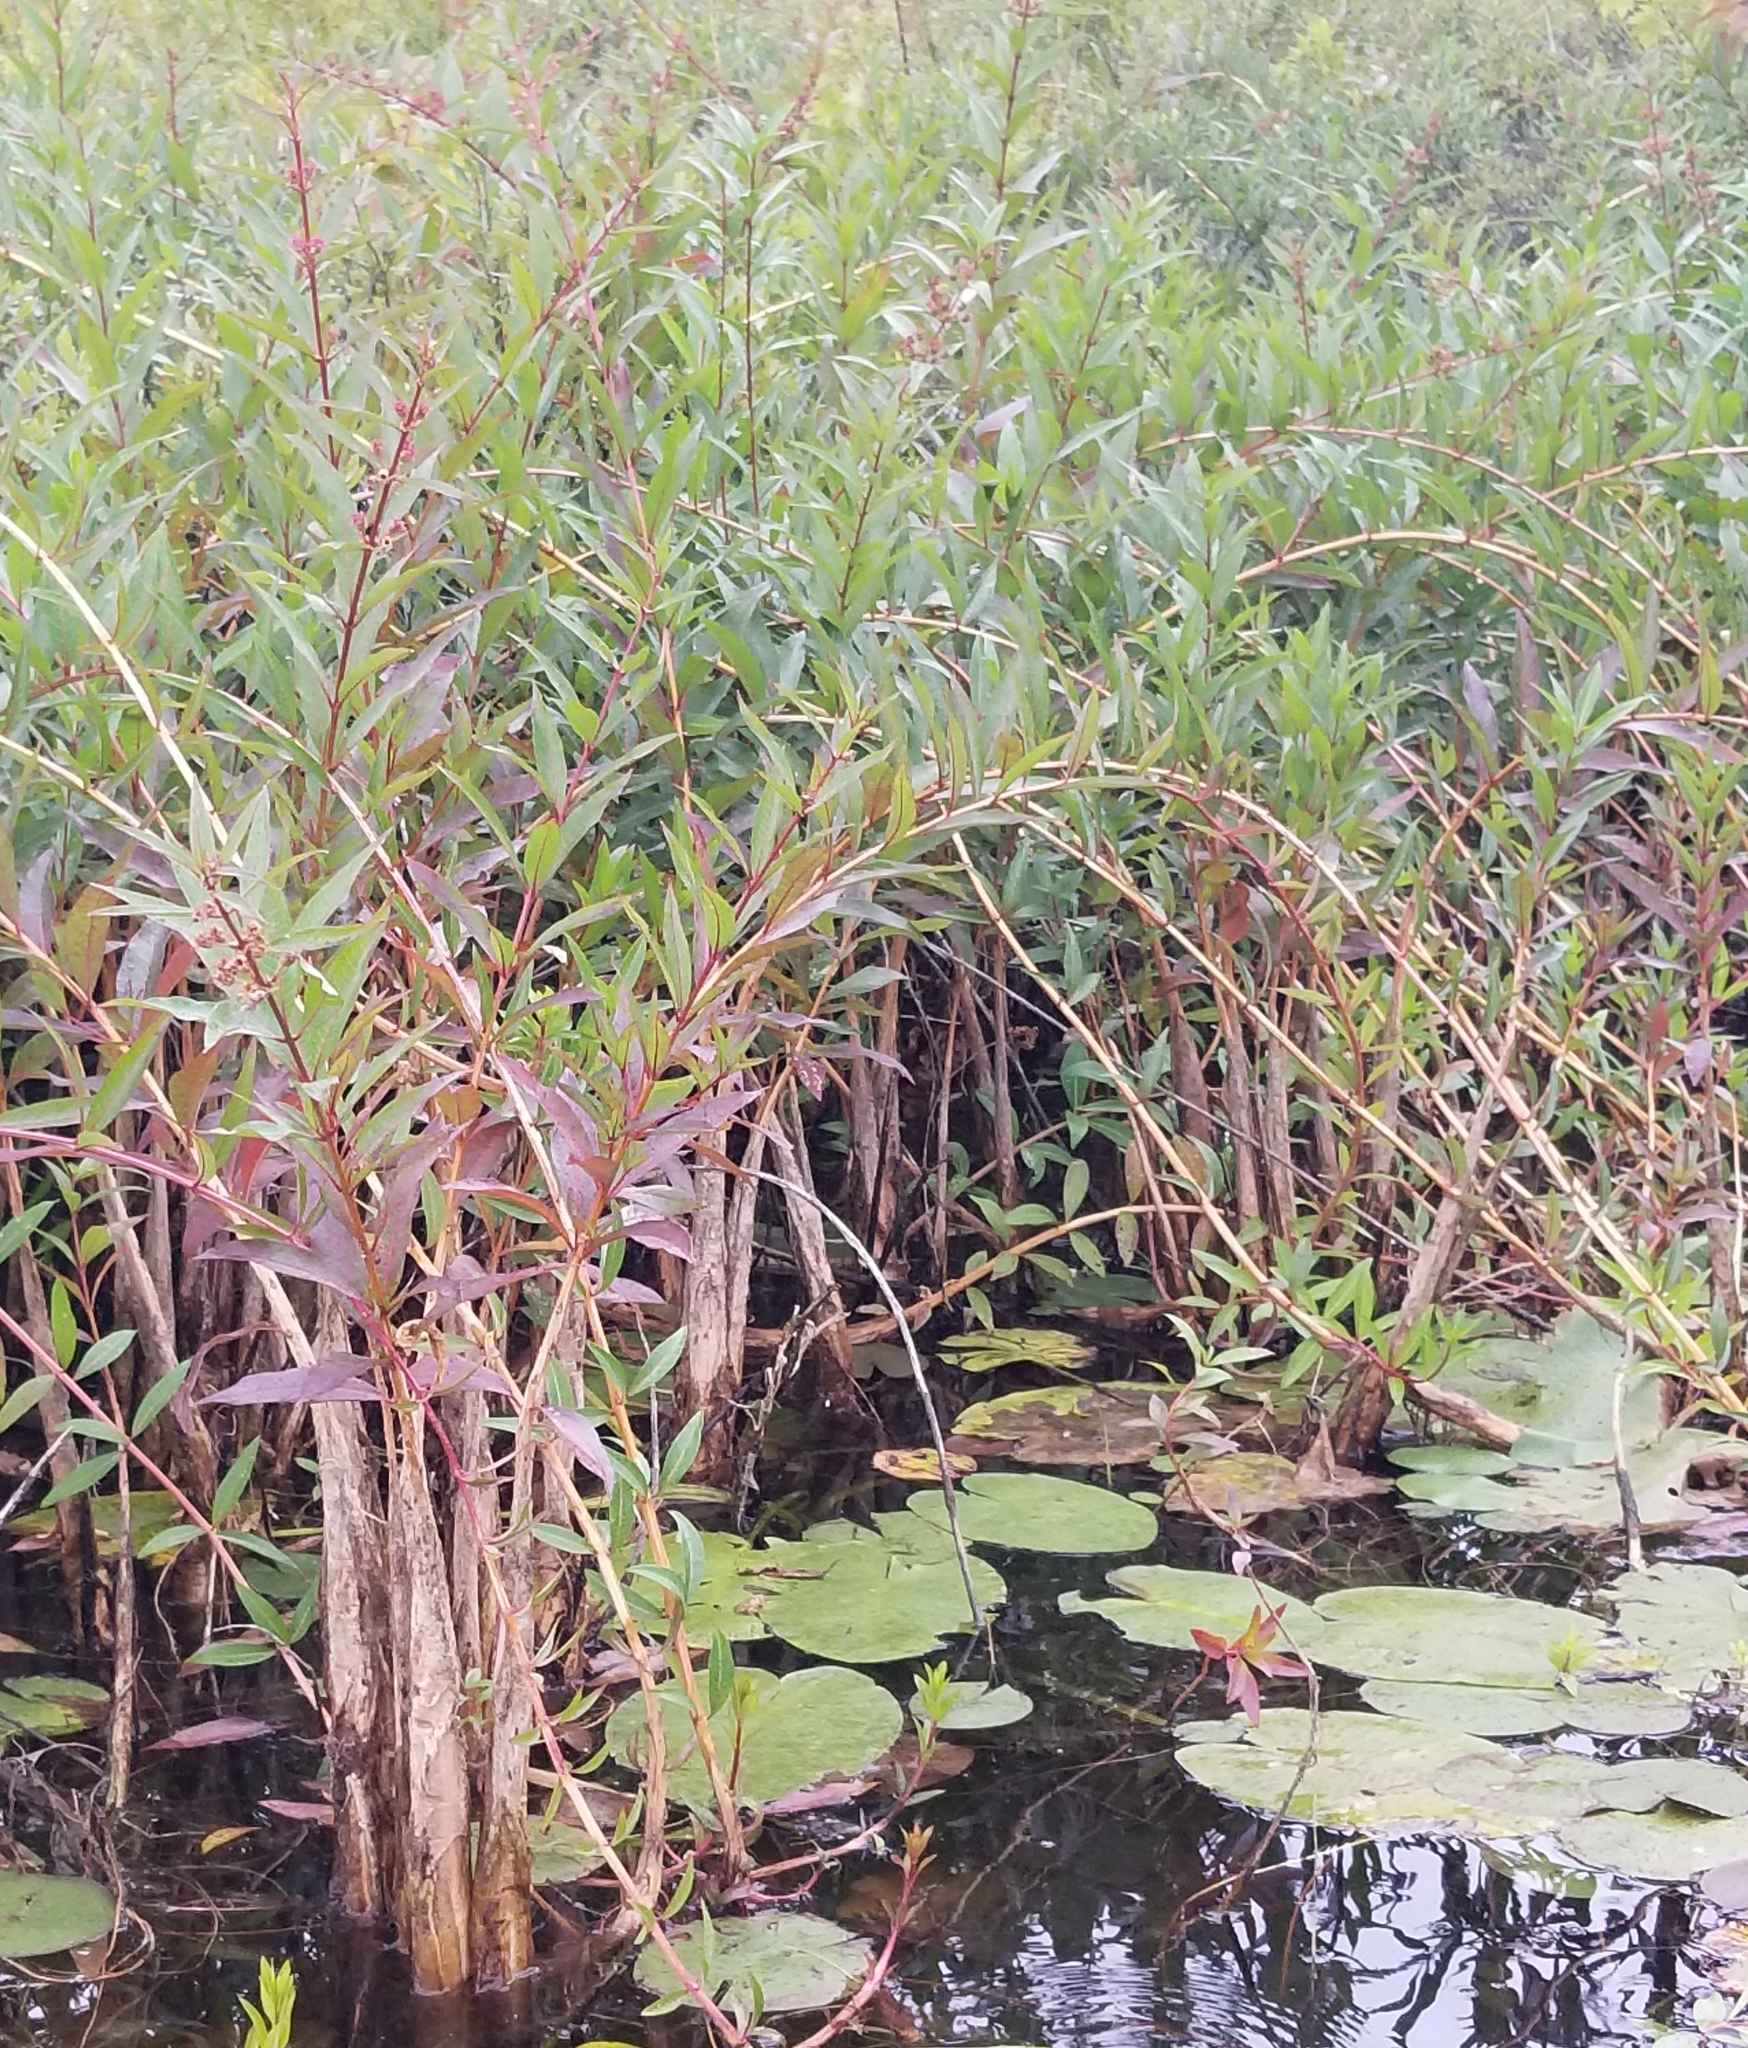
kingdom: Plantae
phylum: Tracheophyta
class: Magnoliopsida
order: Myrtales
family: Lythraceae
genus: Decodon
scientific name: Decodon verticillatus
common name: Hairy swamp loosestrife
